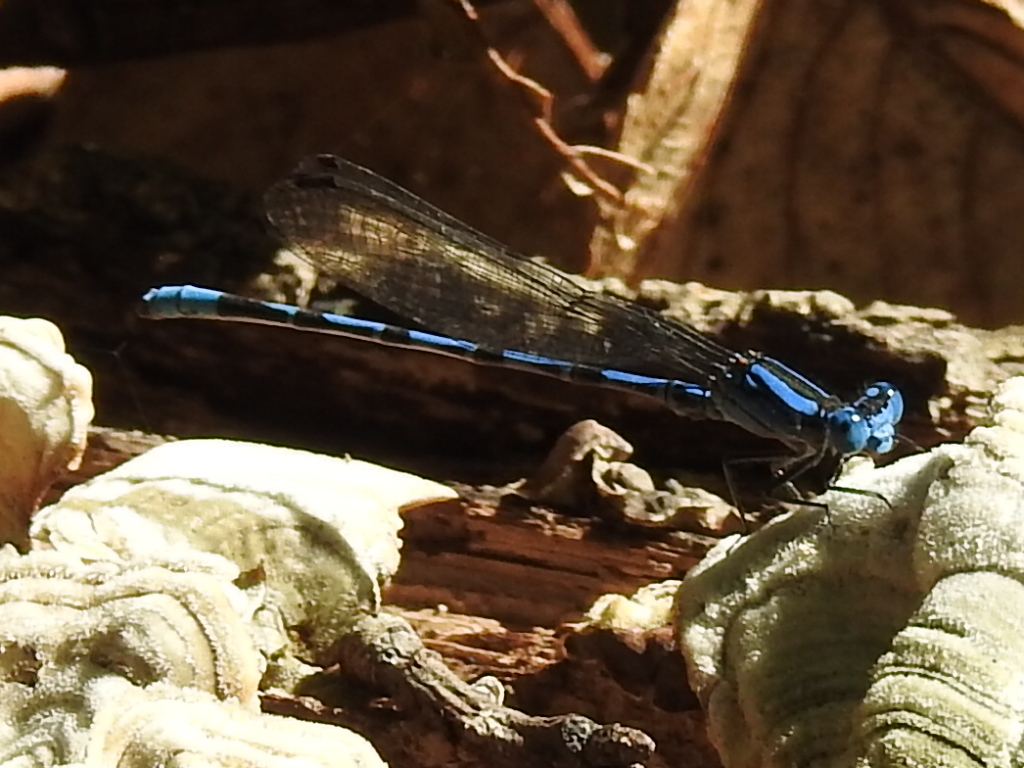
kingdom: Animalia
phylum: Arthropoda
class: Insecta
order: Odonata
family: Coenagrionidae
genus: Argia
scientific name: Argia funebris
